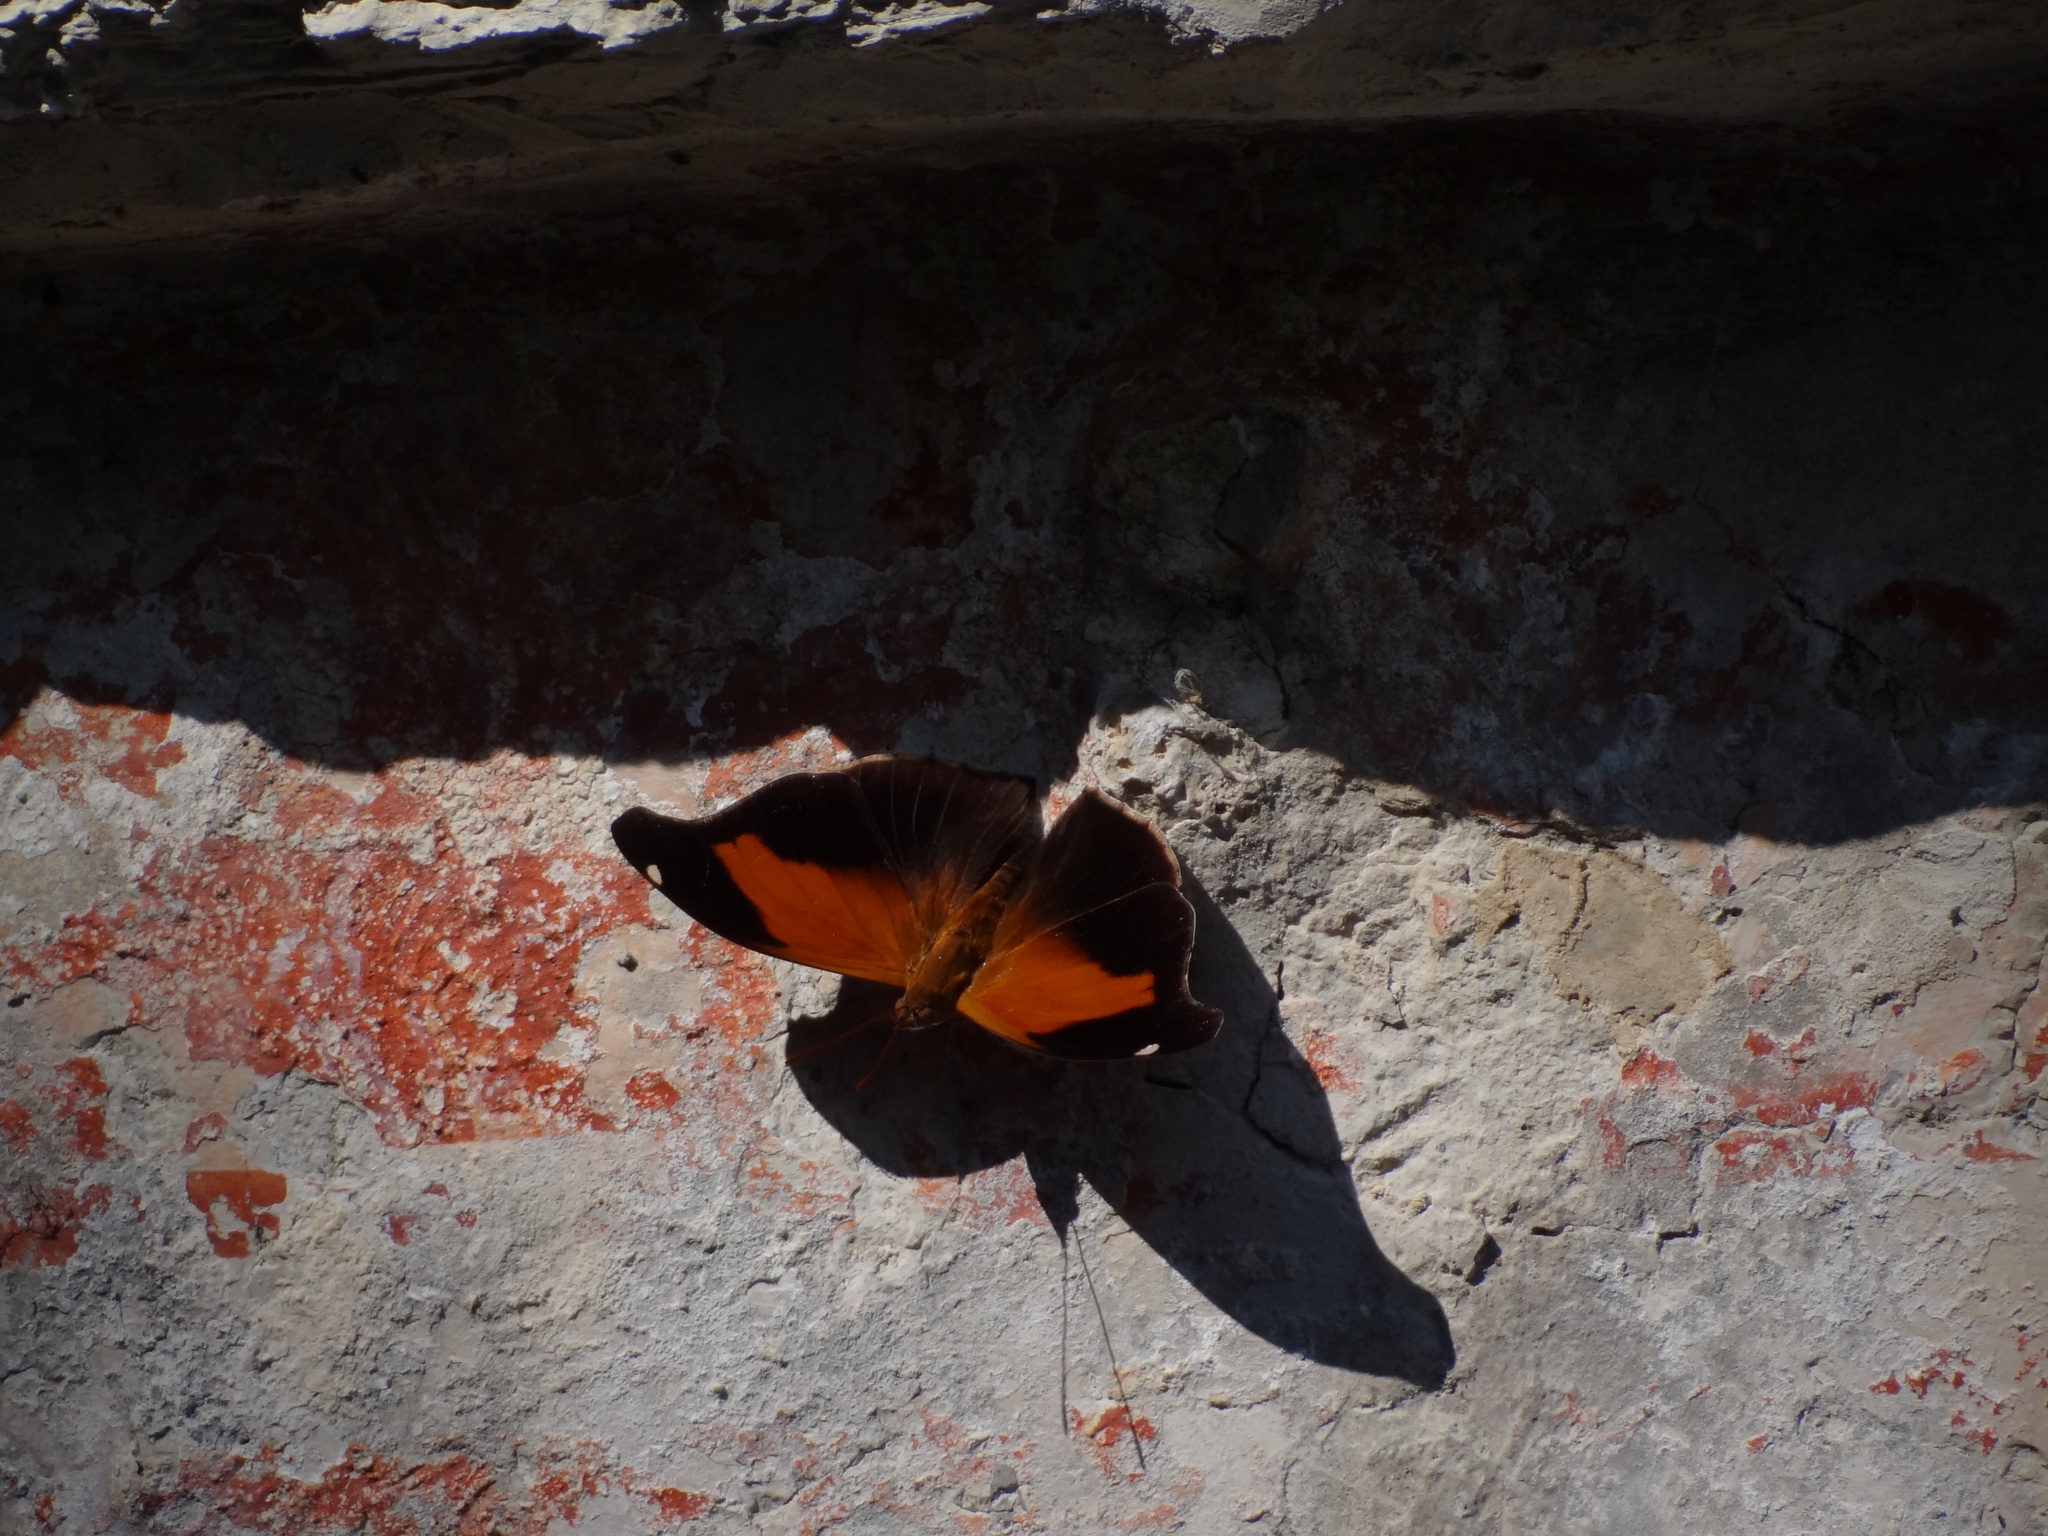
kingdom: Animalia
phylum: Arthropoda
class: Insecta
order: Lepidoptera
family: Nymphalidae
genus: Historis
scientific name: Historis odius
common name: Orion cecropian
